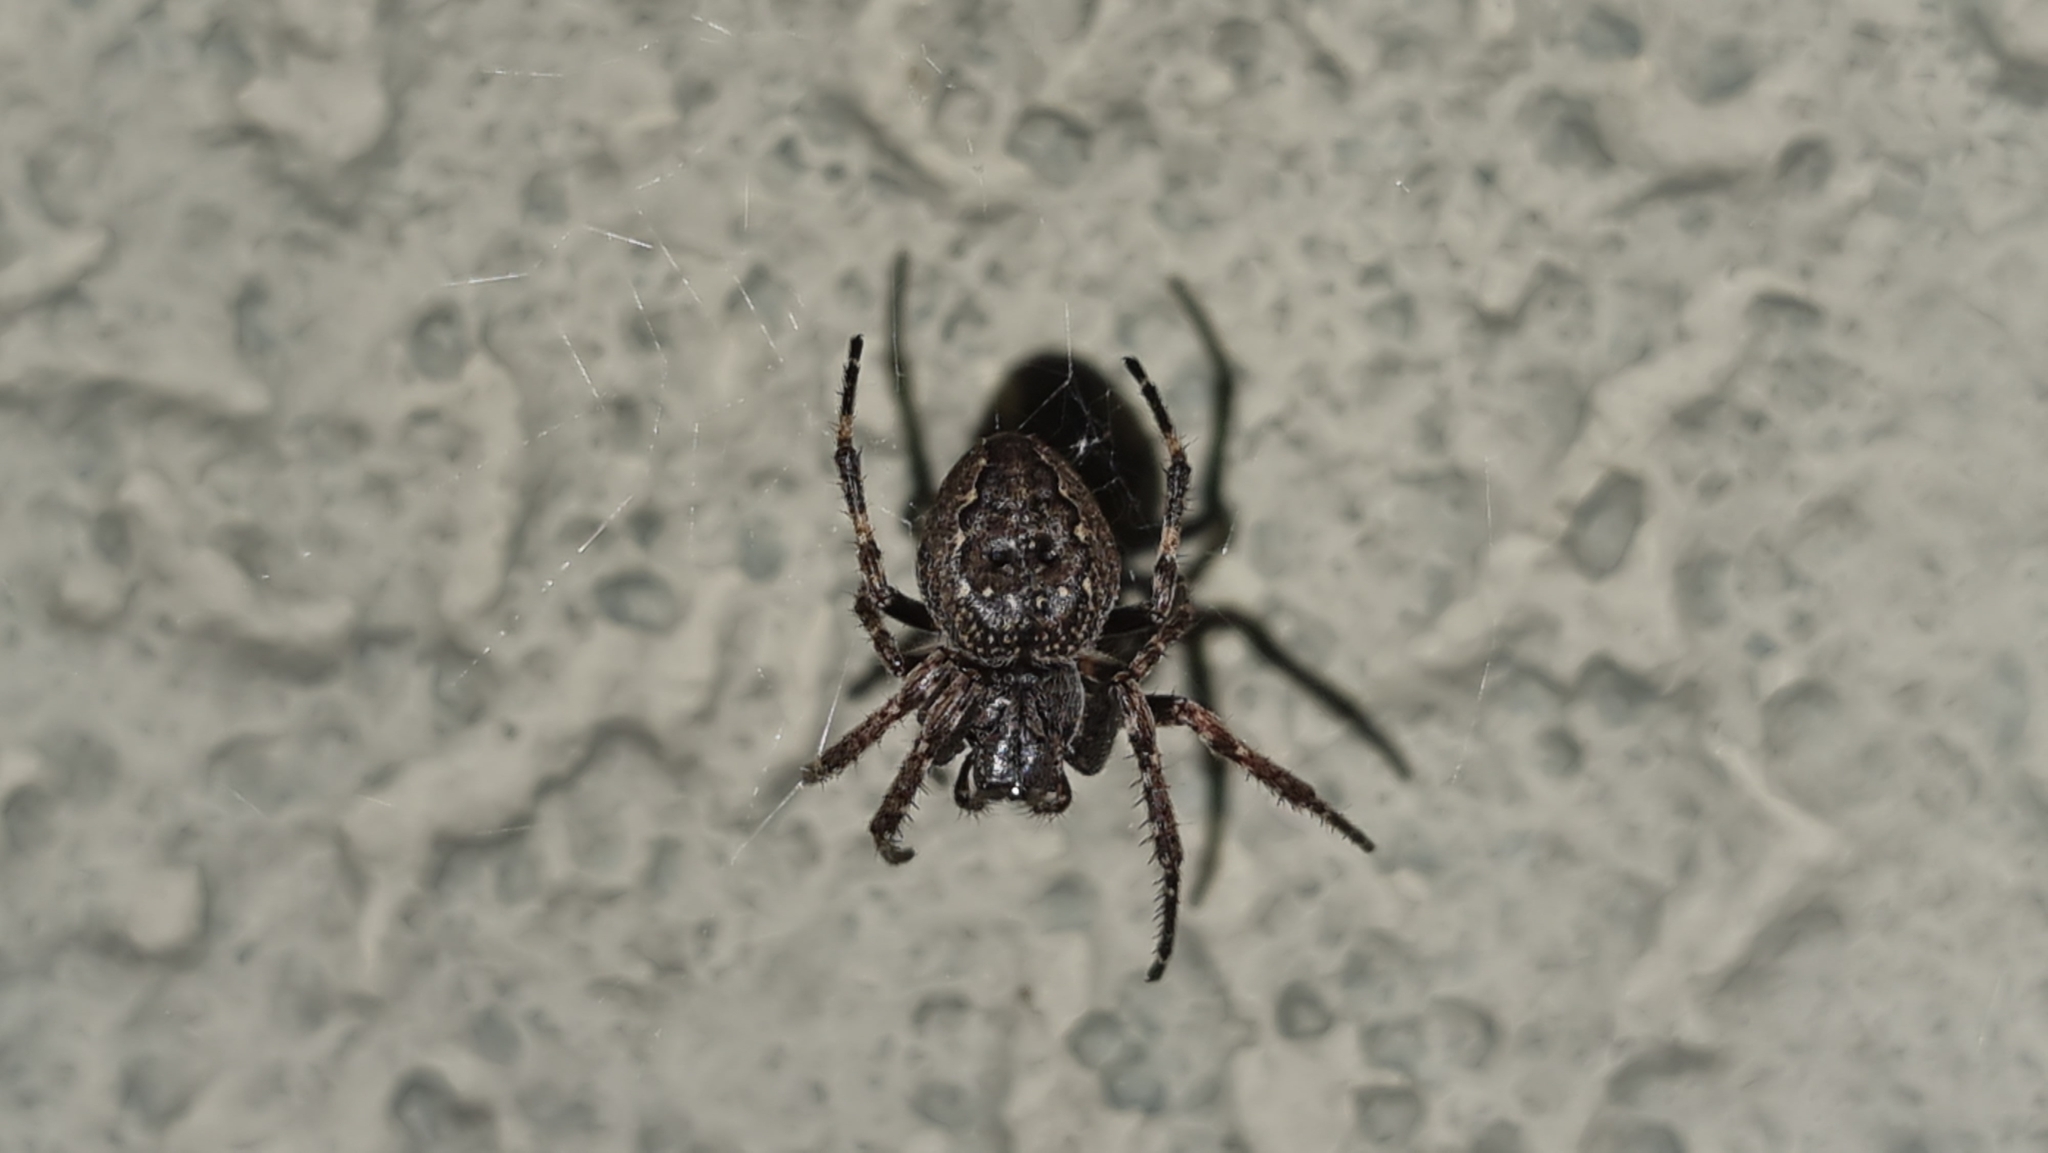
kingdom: Animalia
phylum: Arthropoda
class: Arachnida
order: Araneae
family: Araneidae
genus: Nuctenea
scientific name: Nuctenea umbratica
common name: Toad spider
